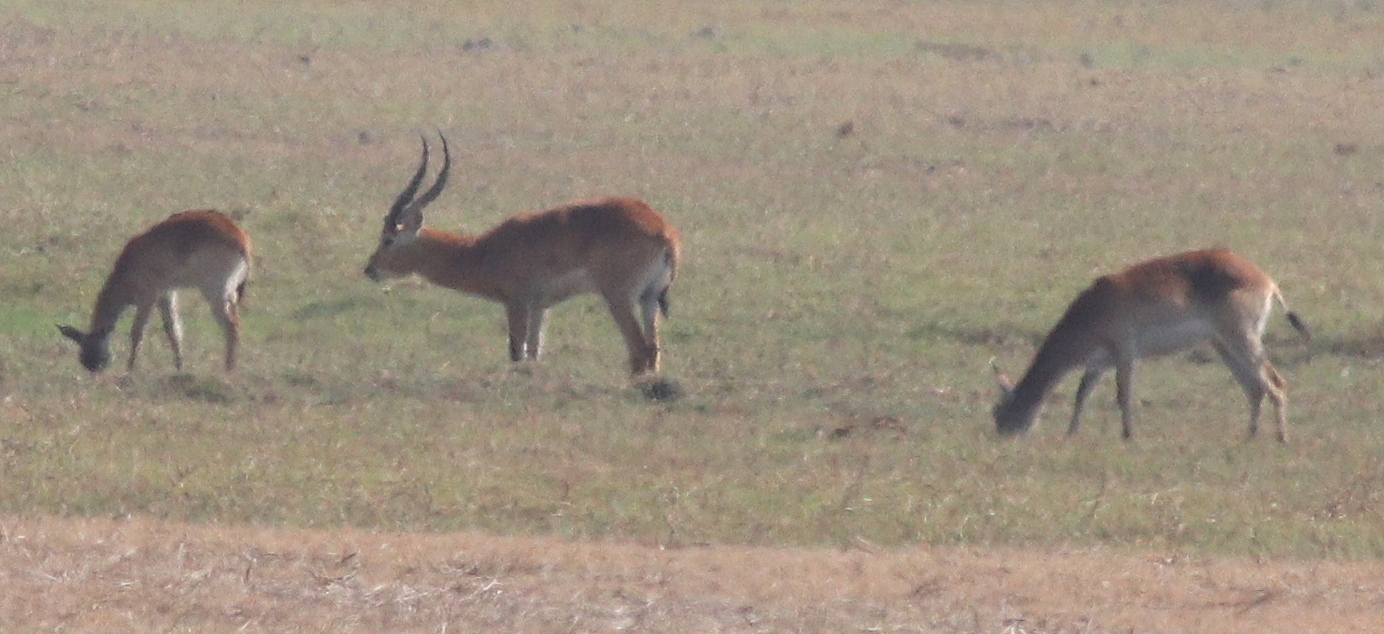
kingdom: Animalia
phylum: Chordata
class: Mammalia
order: Artiodactyla
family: Bovidae
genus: Kobus
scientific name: Kobus leche
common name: Lechwe
